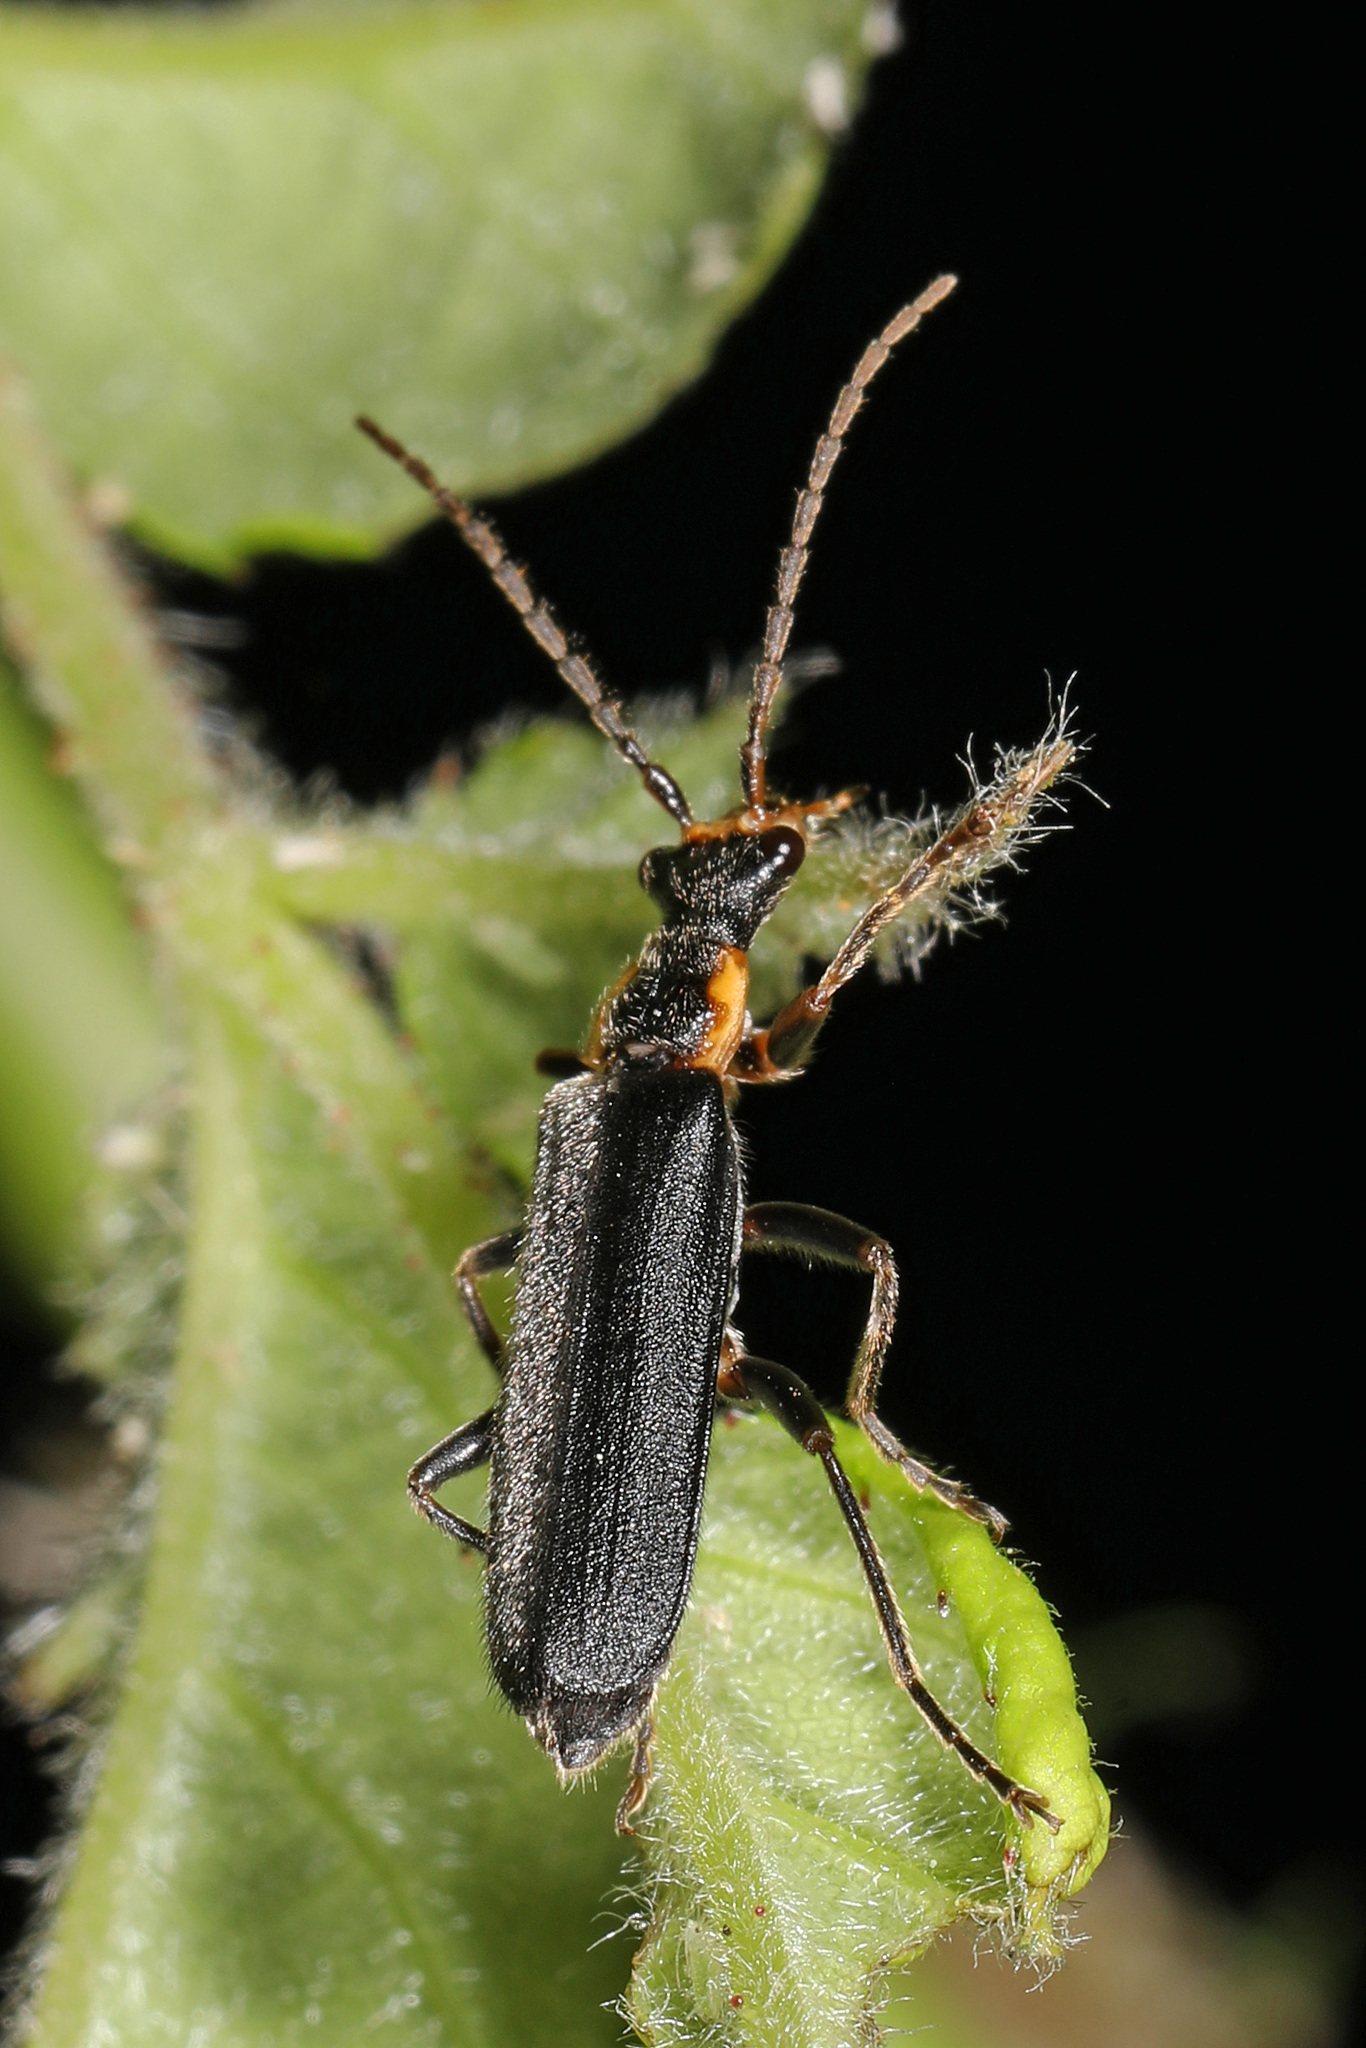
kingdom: Animalia
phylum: Arthropoda
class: Insecta
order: Coleoptera
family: Cantharidae
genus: Podabrus
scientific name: Podabrus rugosulus
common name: Wrinkled soldier beetle
